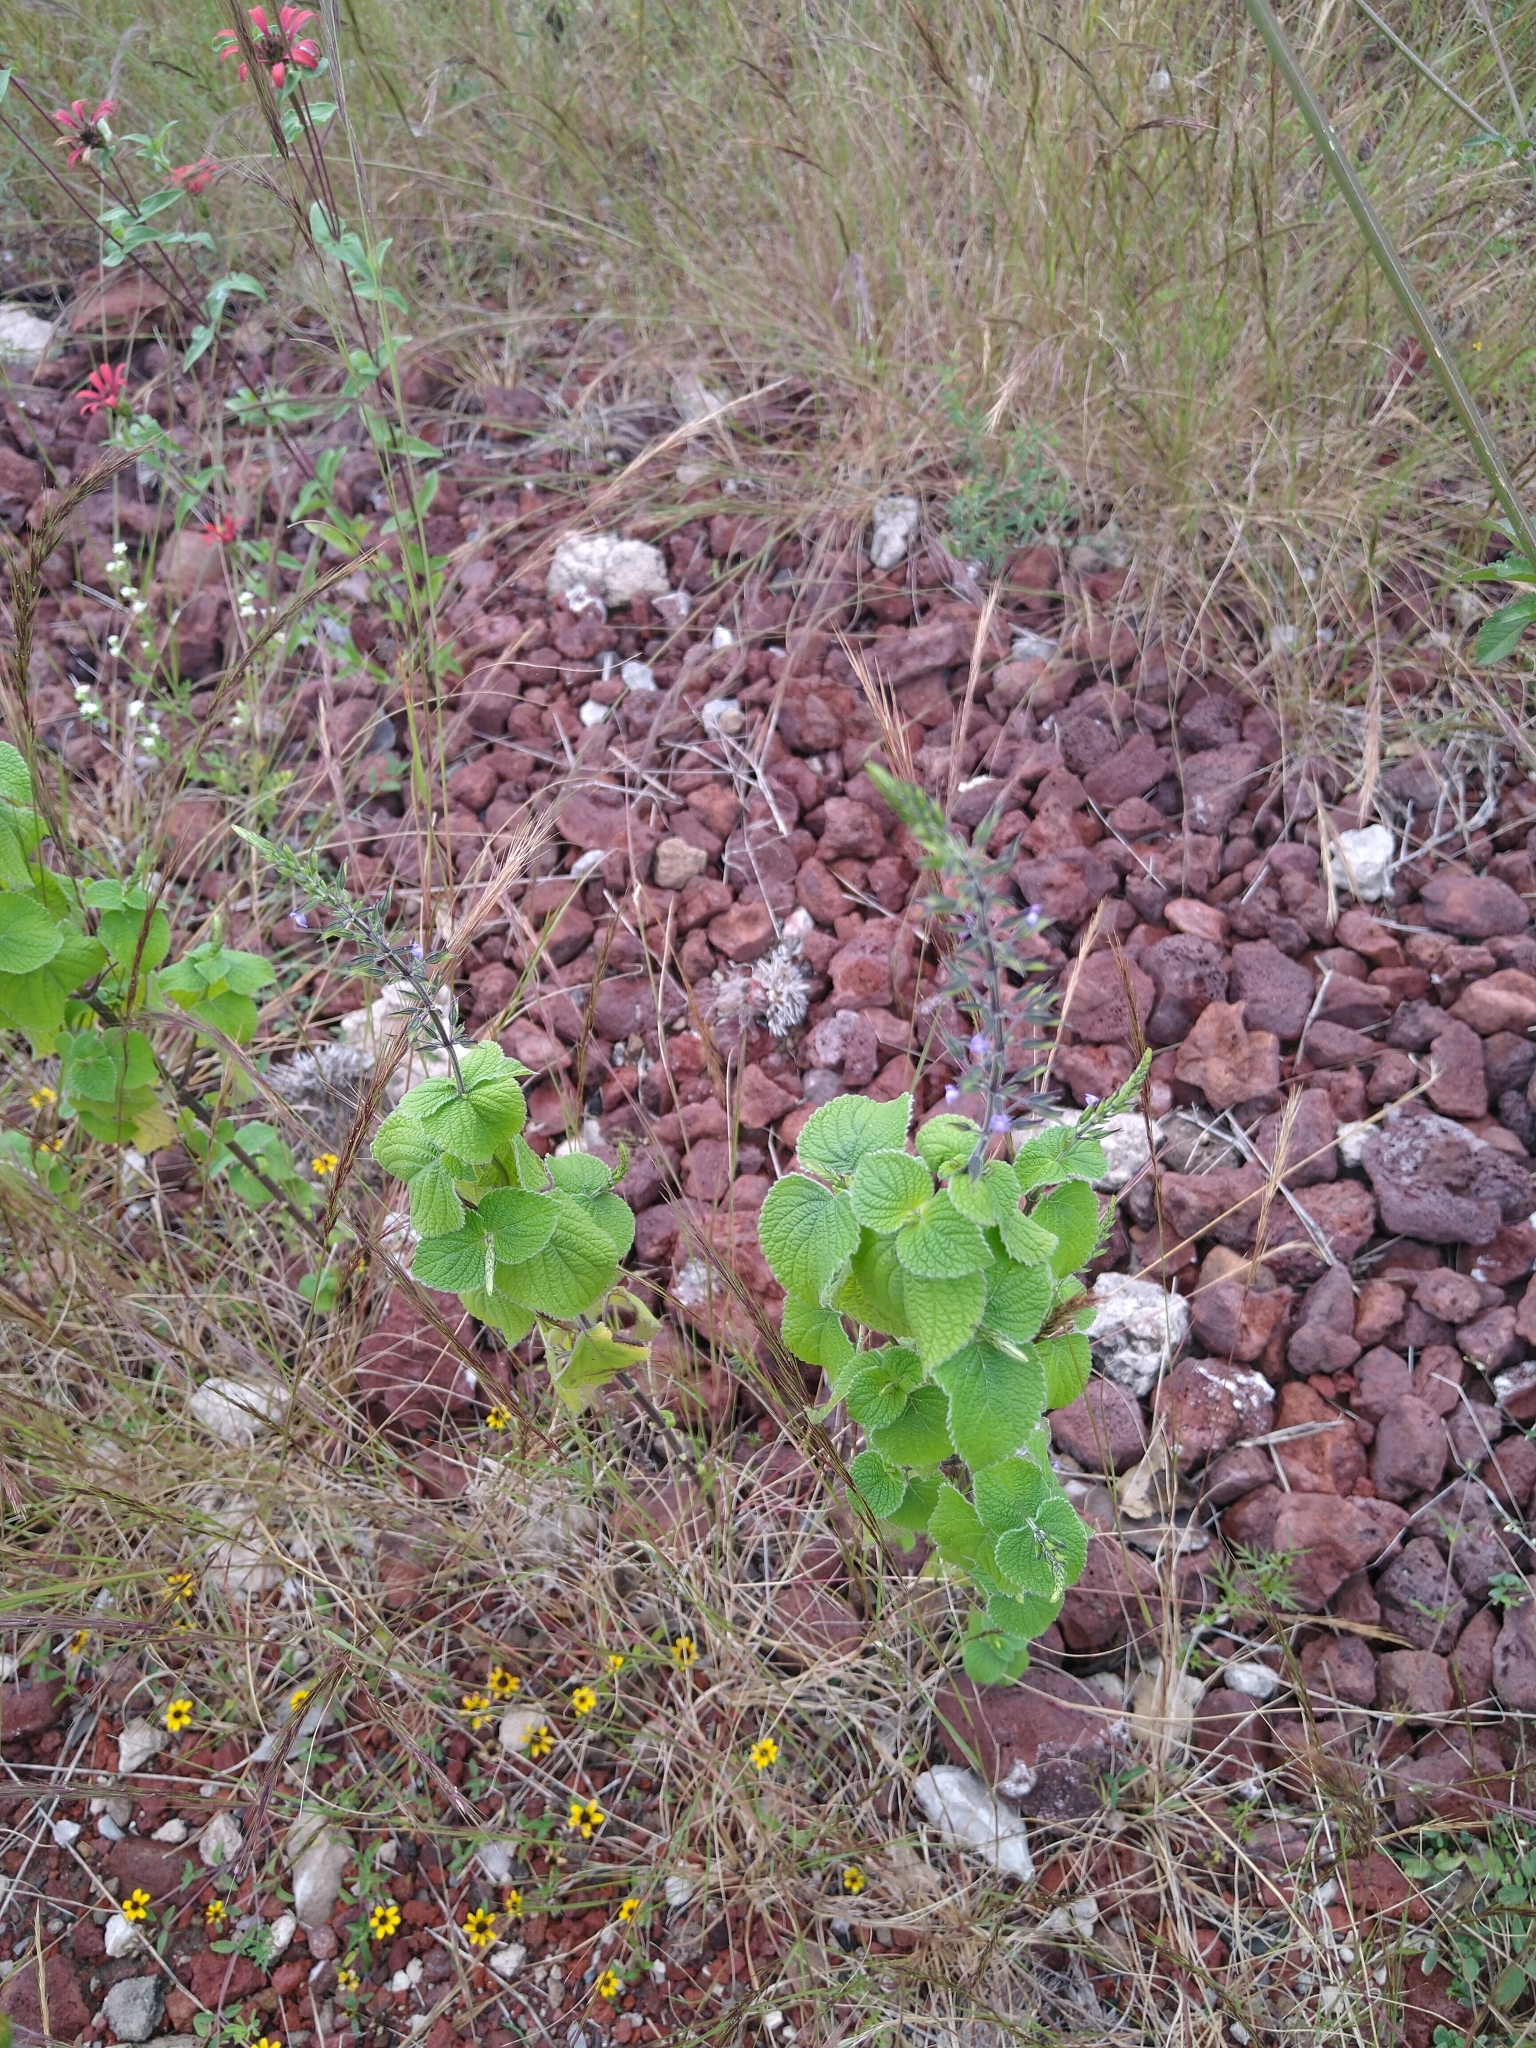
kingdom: Plantae
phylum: Tracheophyta
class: Magnoliopsida
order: Lamiales
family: Lamiaceae
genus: Salvia
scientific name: Salvia tiliifolia
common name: Lindenleaf sage
